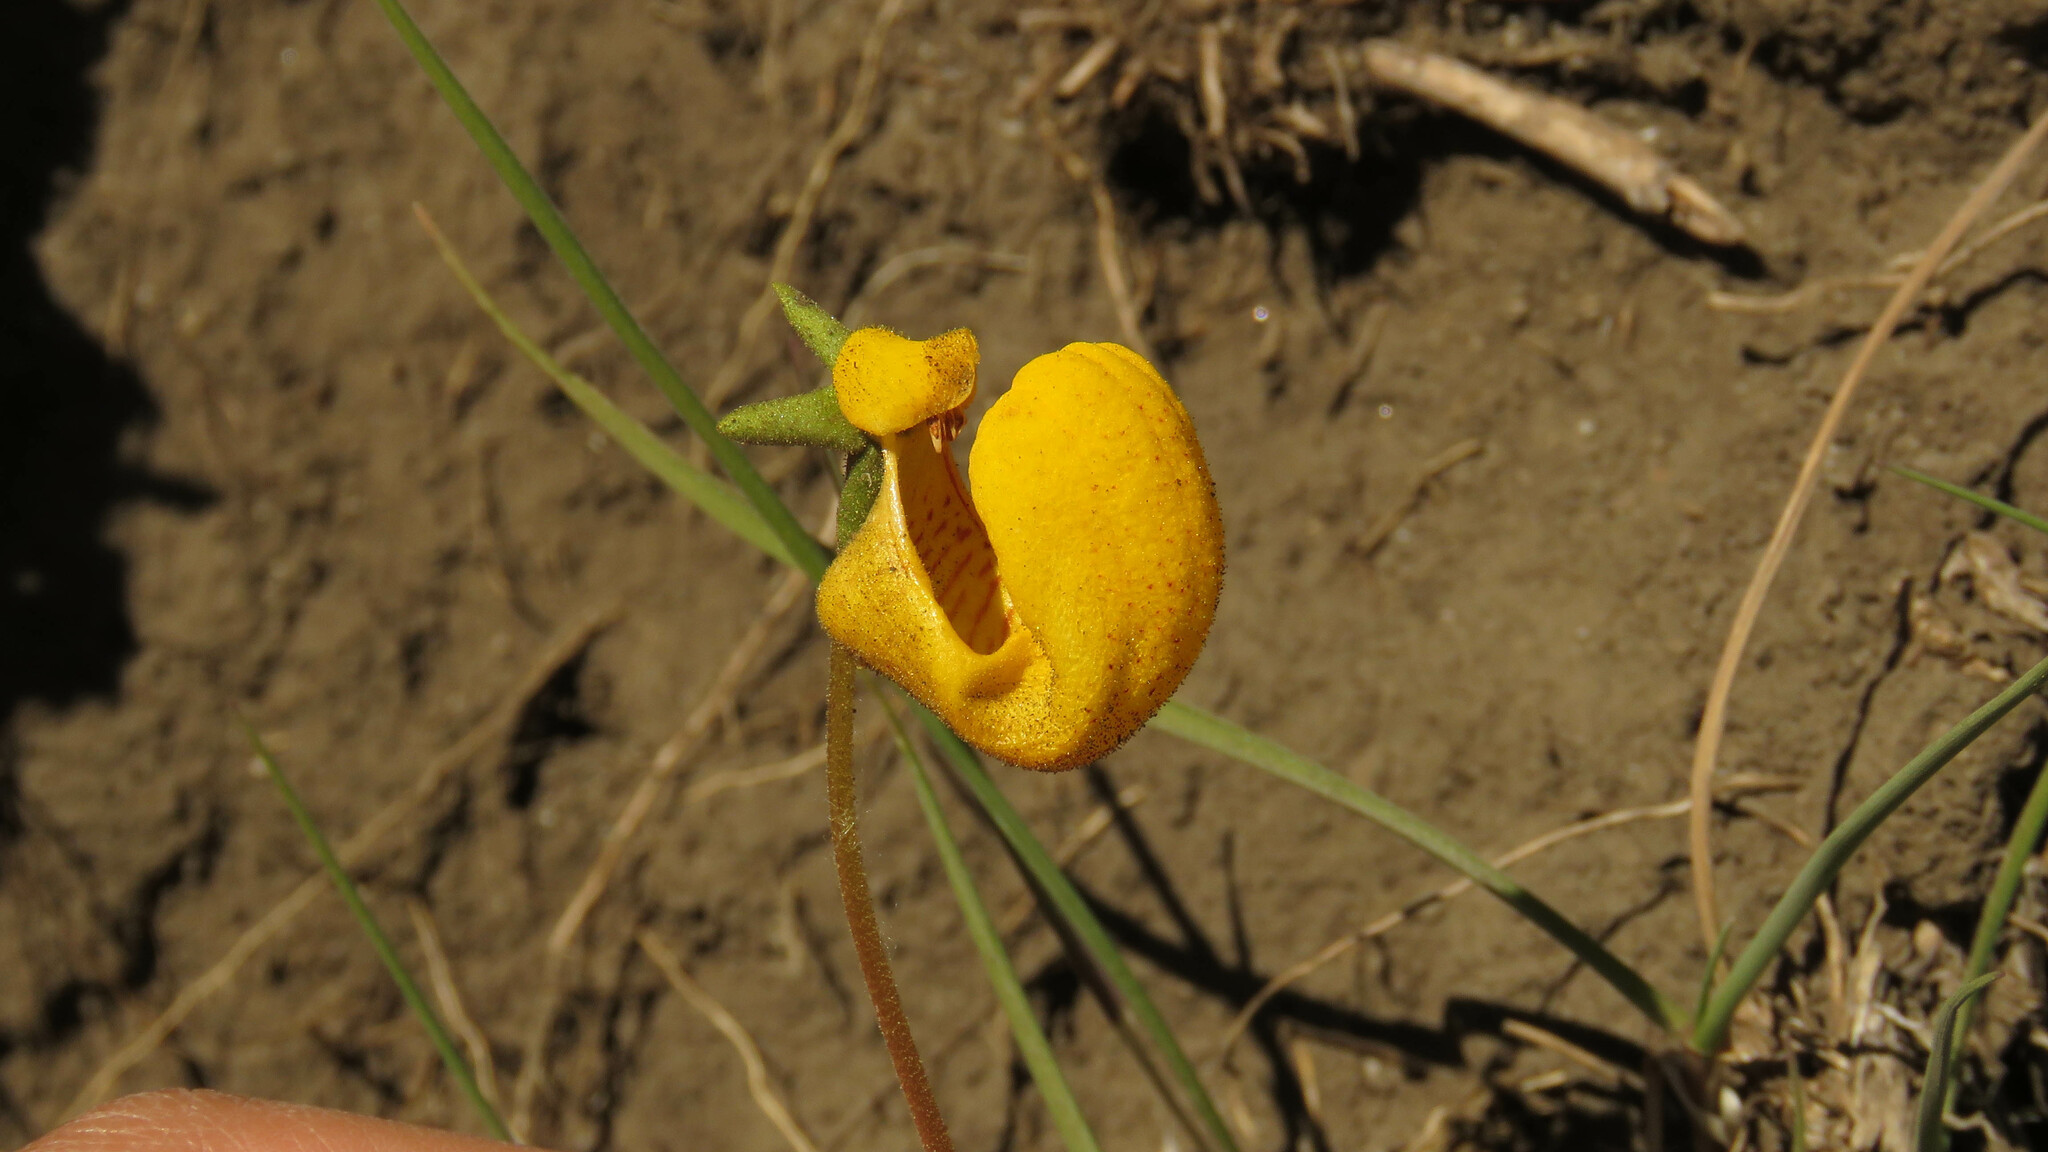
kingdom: Plantae
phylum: Tracheophyta
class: Magnoliopsida
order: Lamiales
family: Calceolariaceae
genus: Calceolaria
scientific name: Calceolaria polyrhiza
